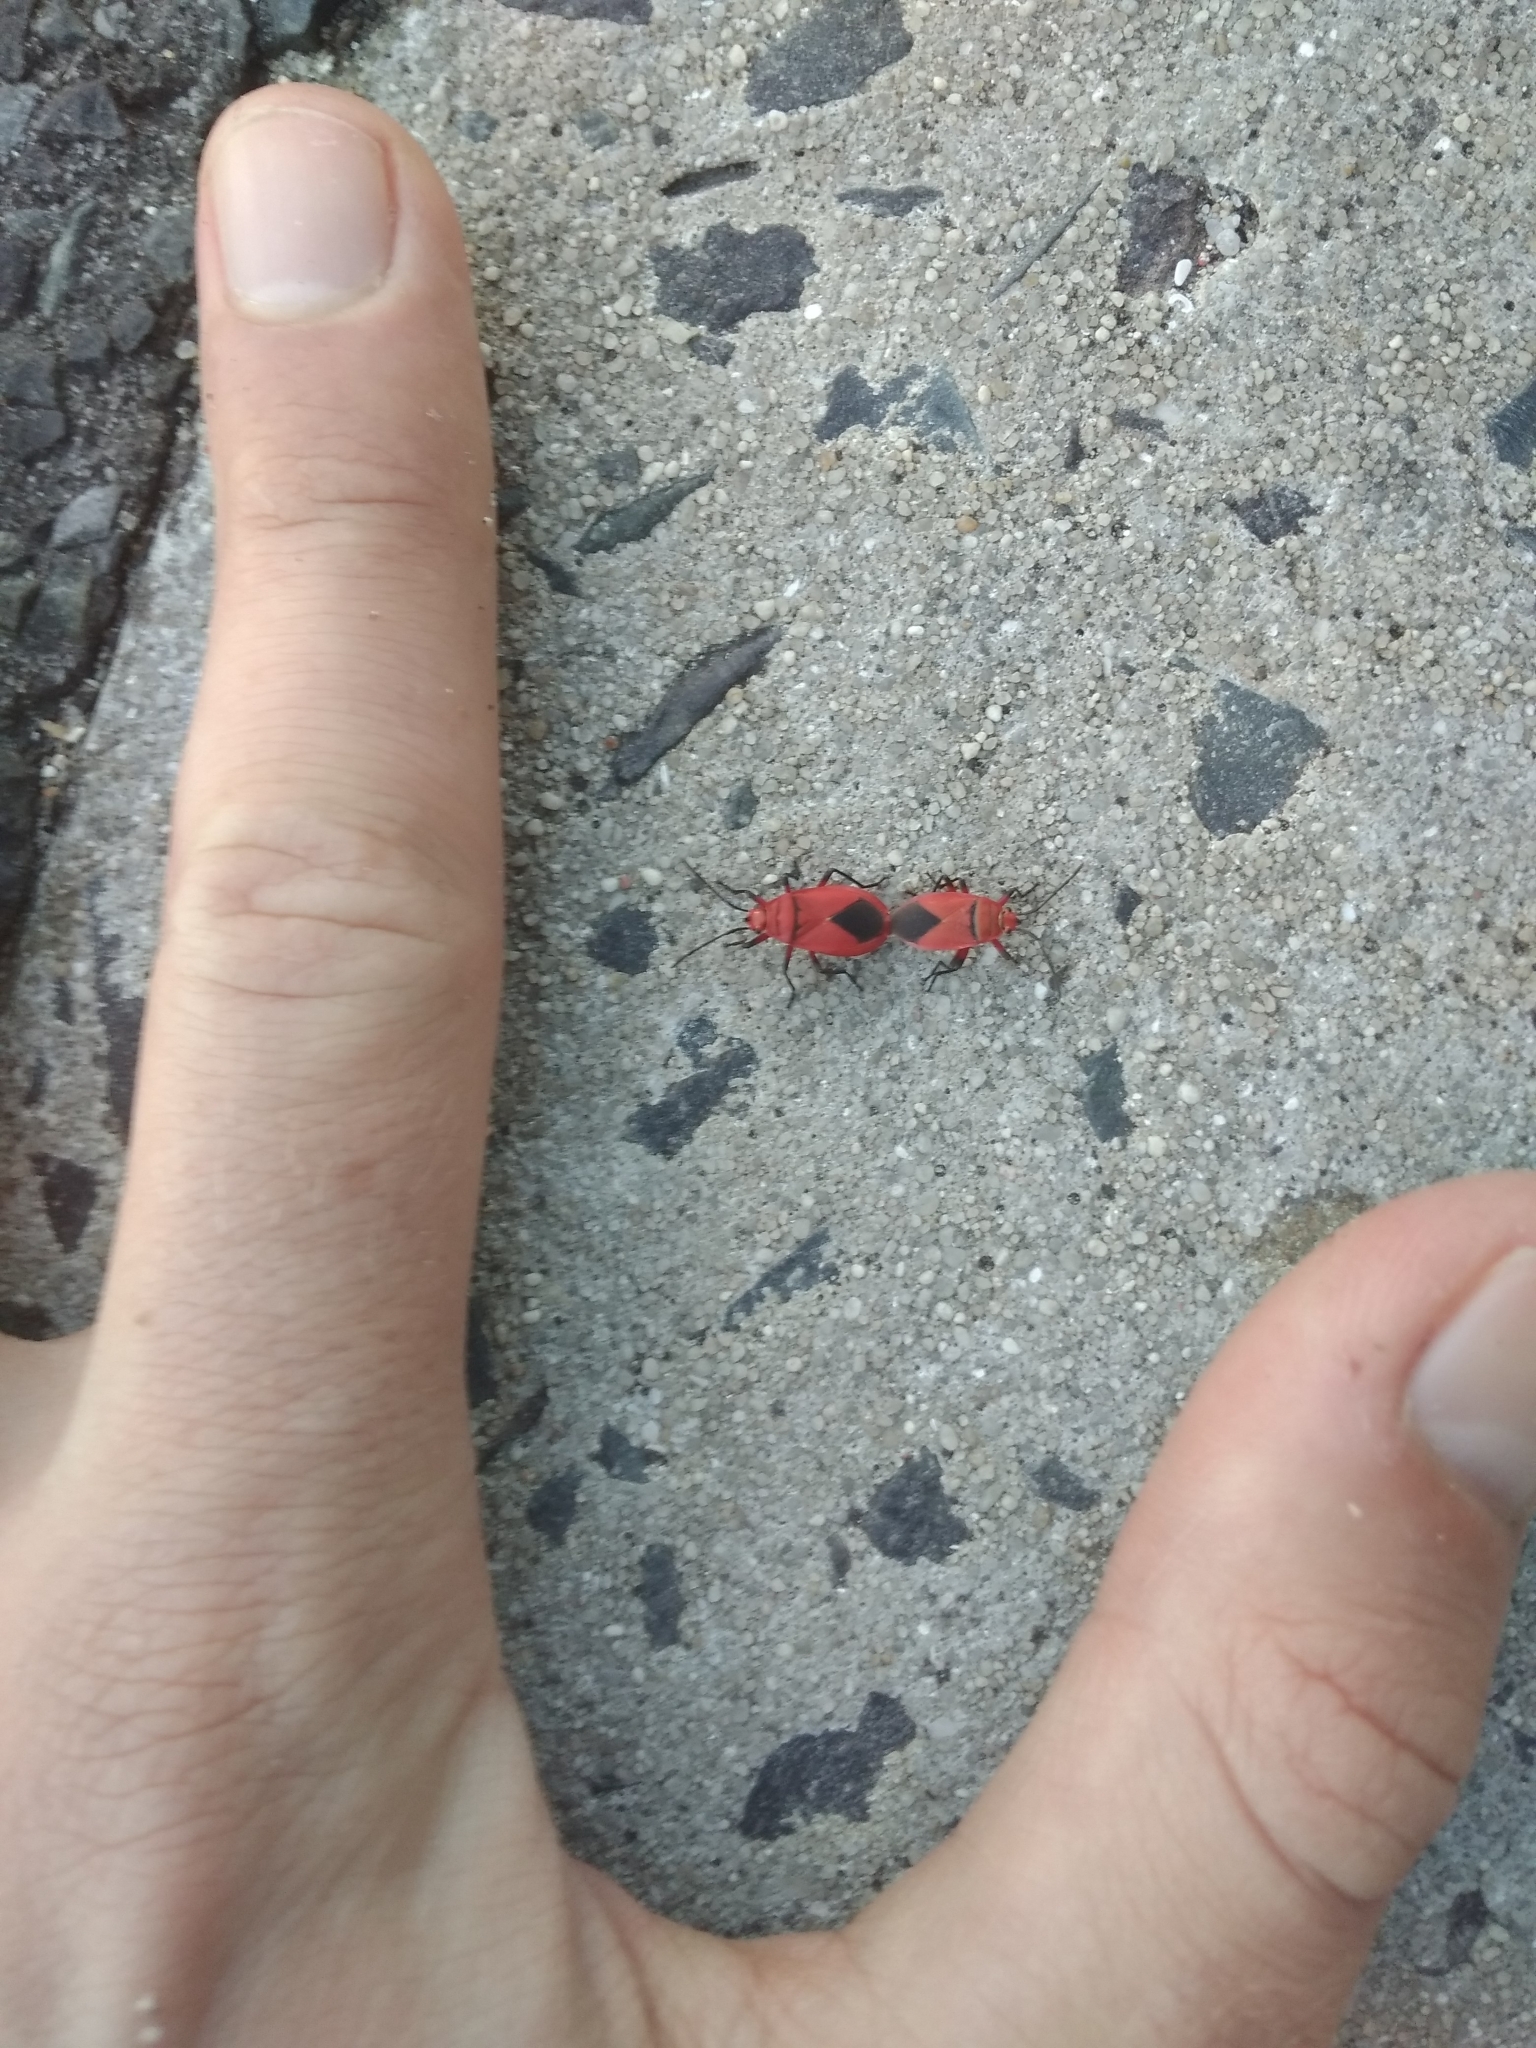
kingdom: Animalia
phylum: Arthropoda
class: Insecta
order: Hemiptera
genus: Cenaeus
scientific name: Cenaeus
